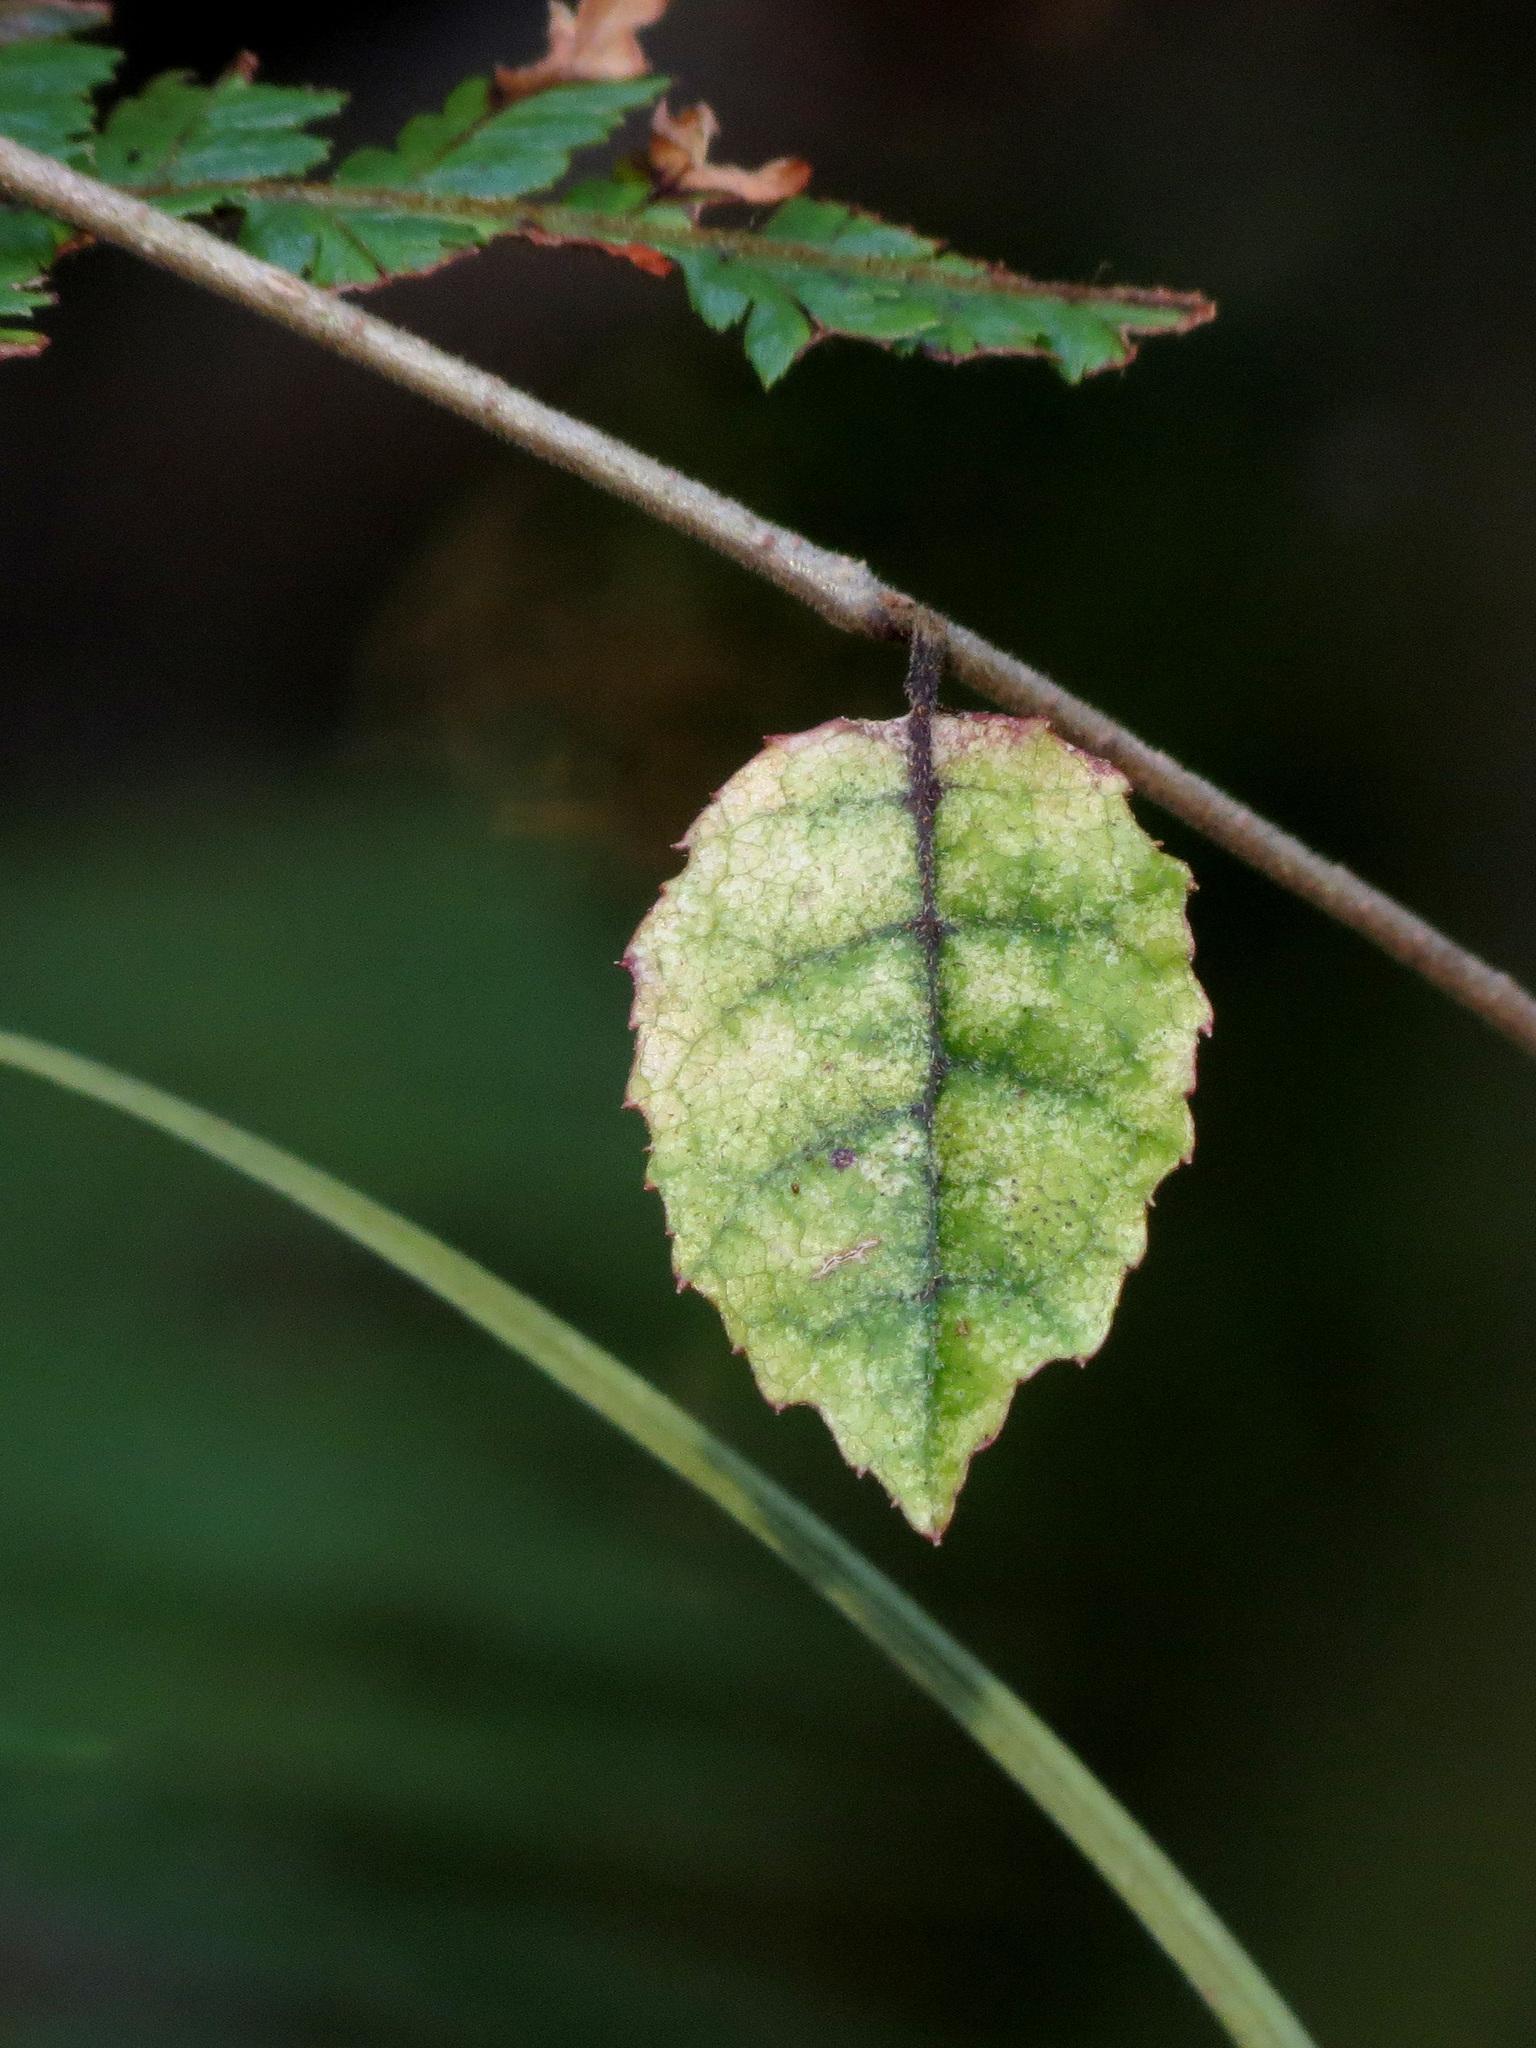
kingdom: Plantae
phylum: Tracheophyta
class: Magnoliopsida
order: Asterales
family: Rousseaceae
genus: Carpodetus
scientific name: Carpodetus serratus
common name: White mapau
